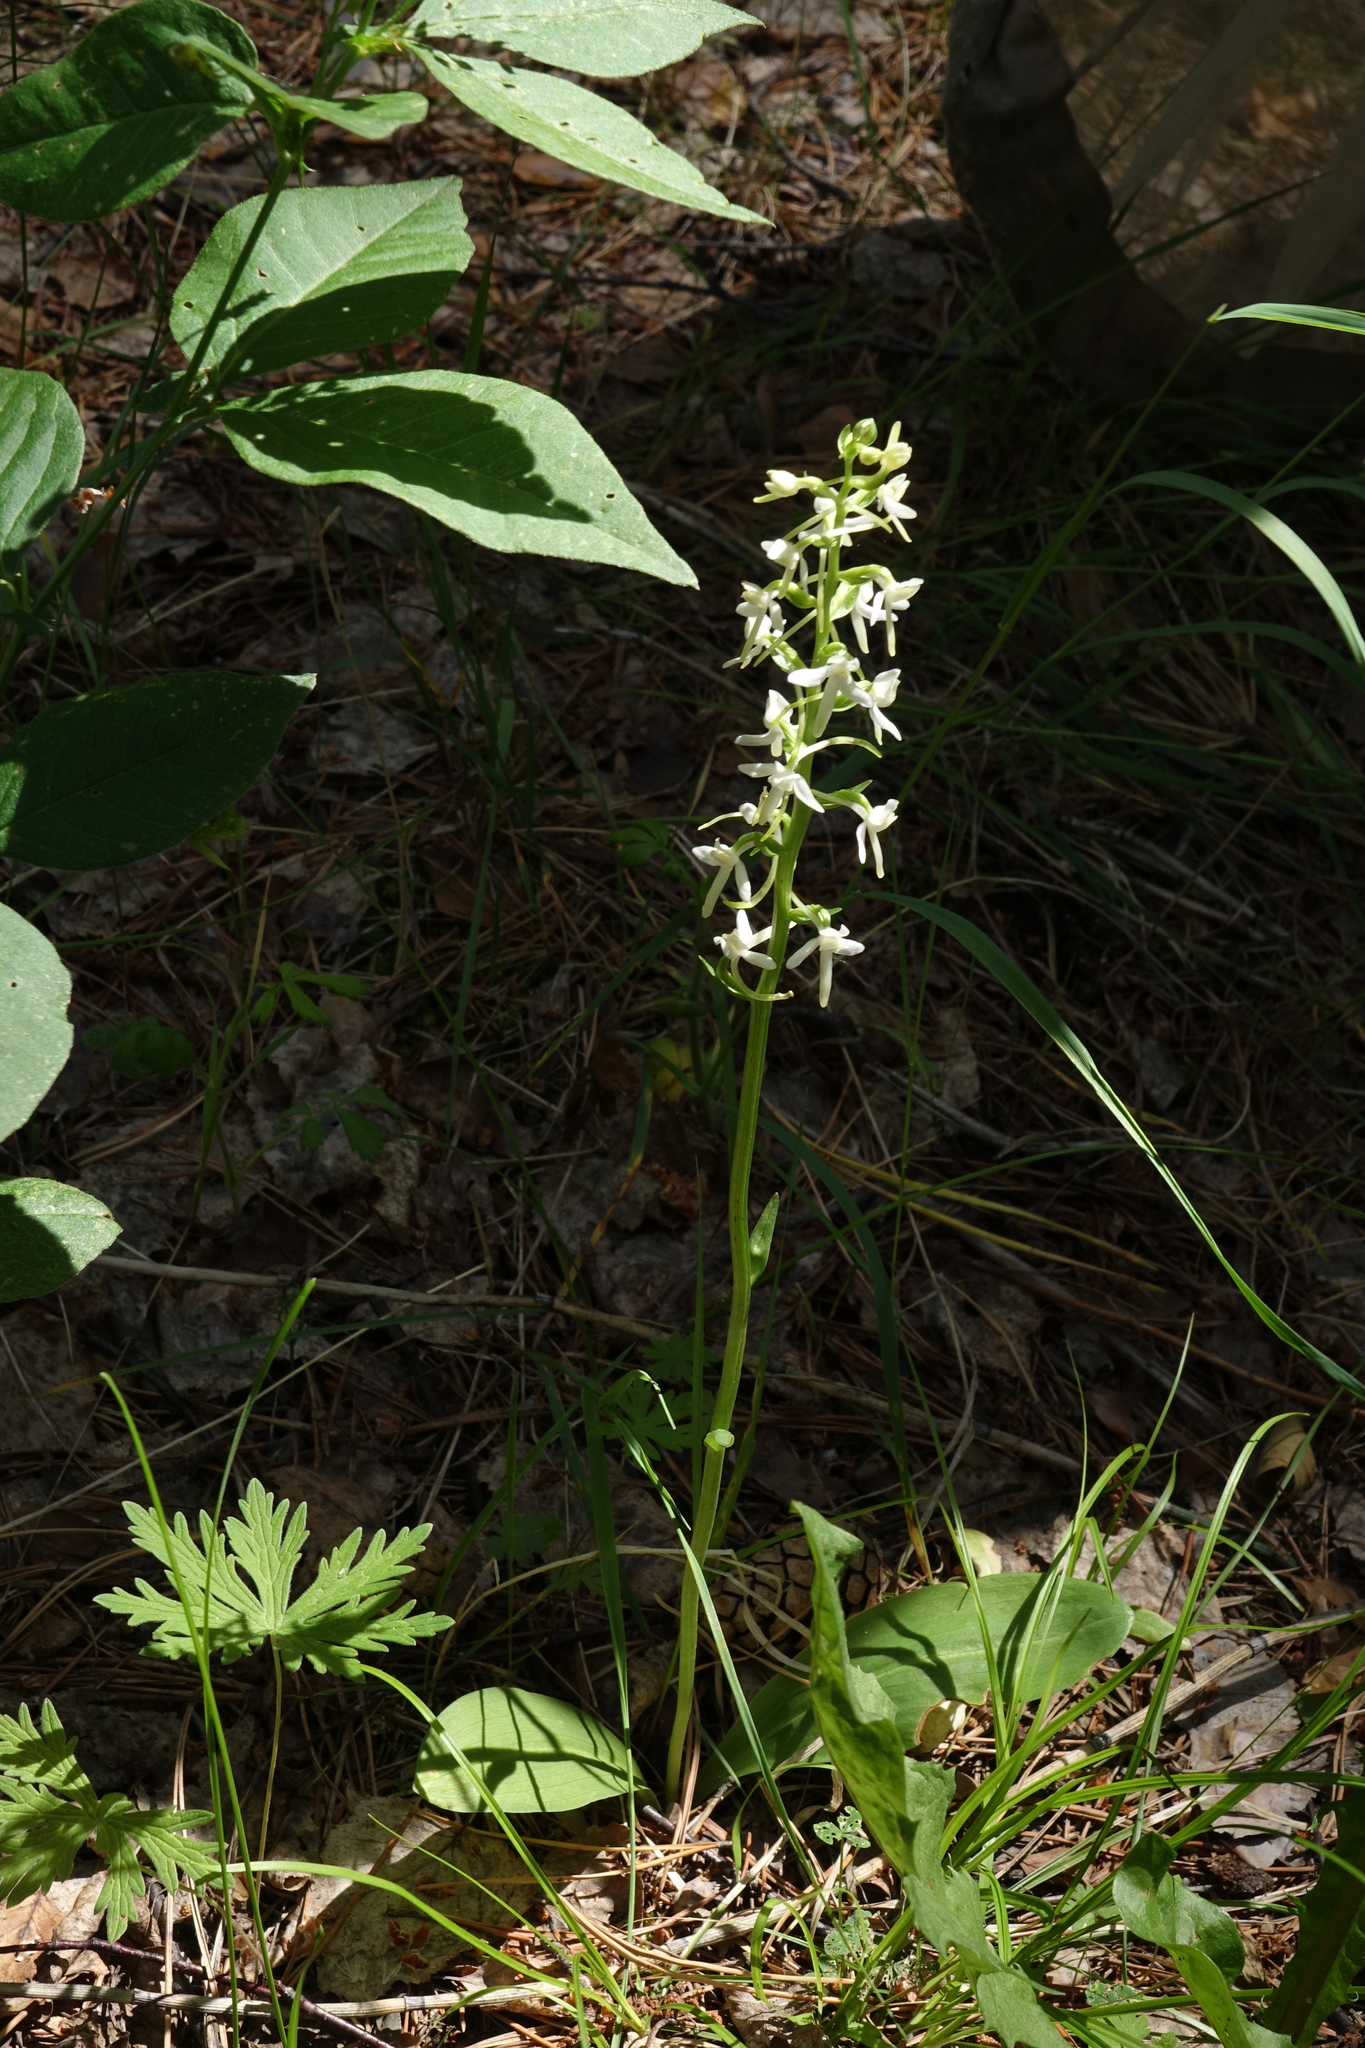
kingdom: Plantae
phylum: Tracheophyta
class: Liliopsida
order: Asparagales
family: Orchidaceae
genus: Platanthera
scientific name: Platanthera bifolia
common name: Lesser butterfly-orchid
